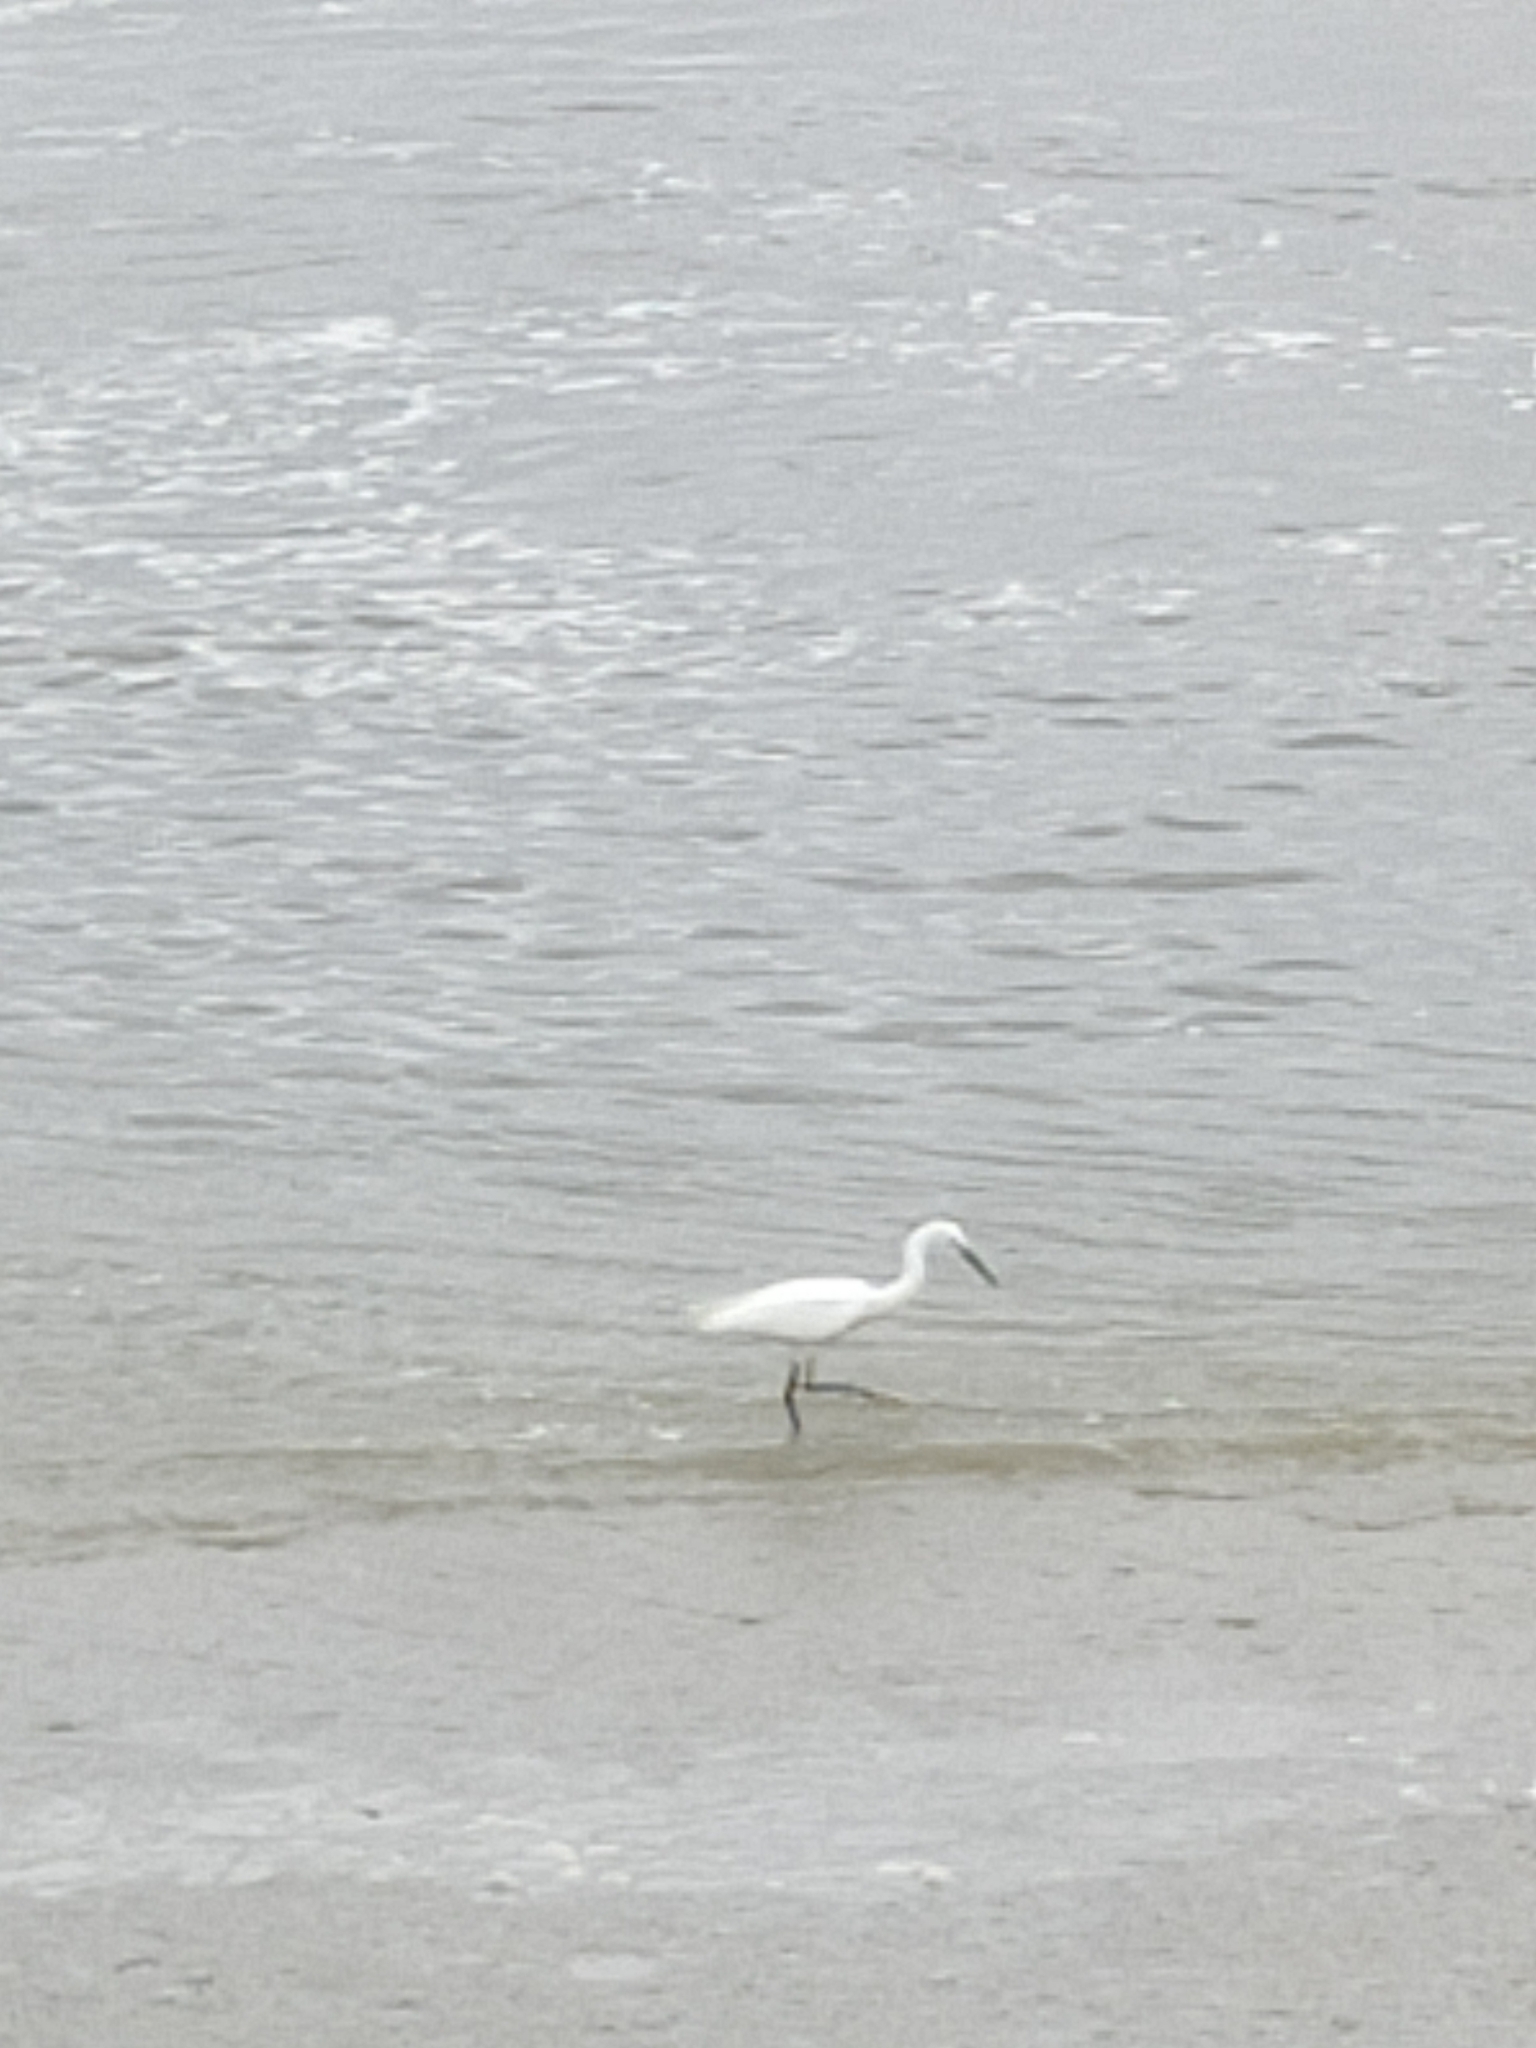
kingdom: Animalia
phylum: Chordata
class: Aves
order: Pelecaniformes
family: Ardeidae
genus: Egretta
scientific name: Egretta garzetta
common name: Little egret
